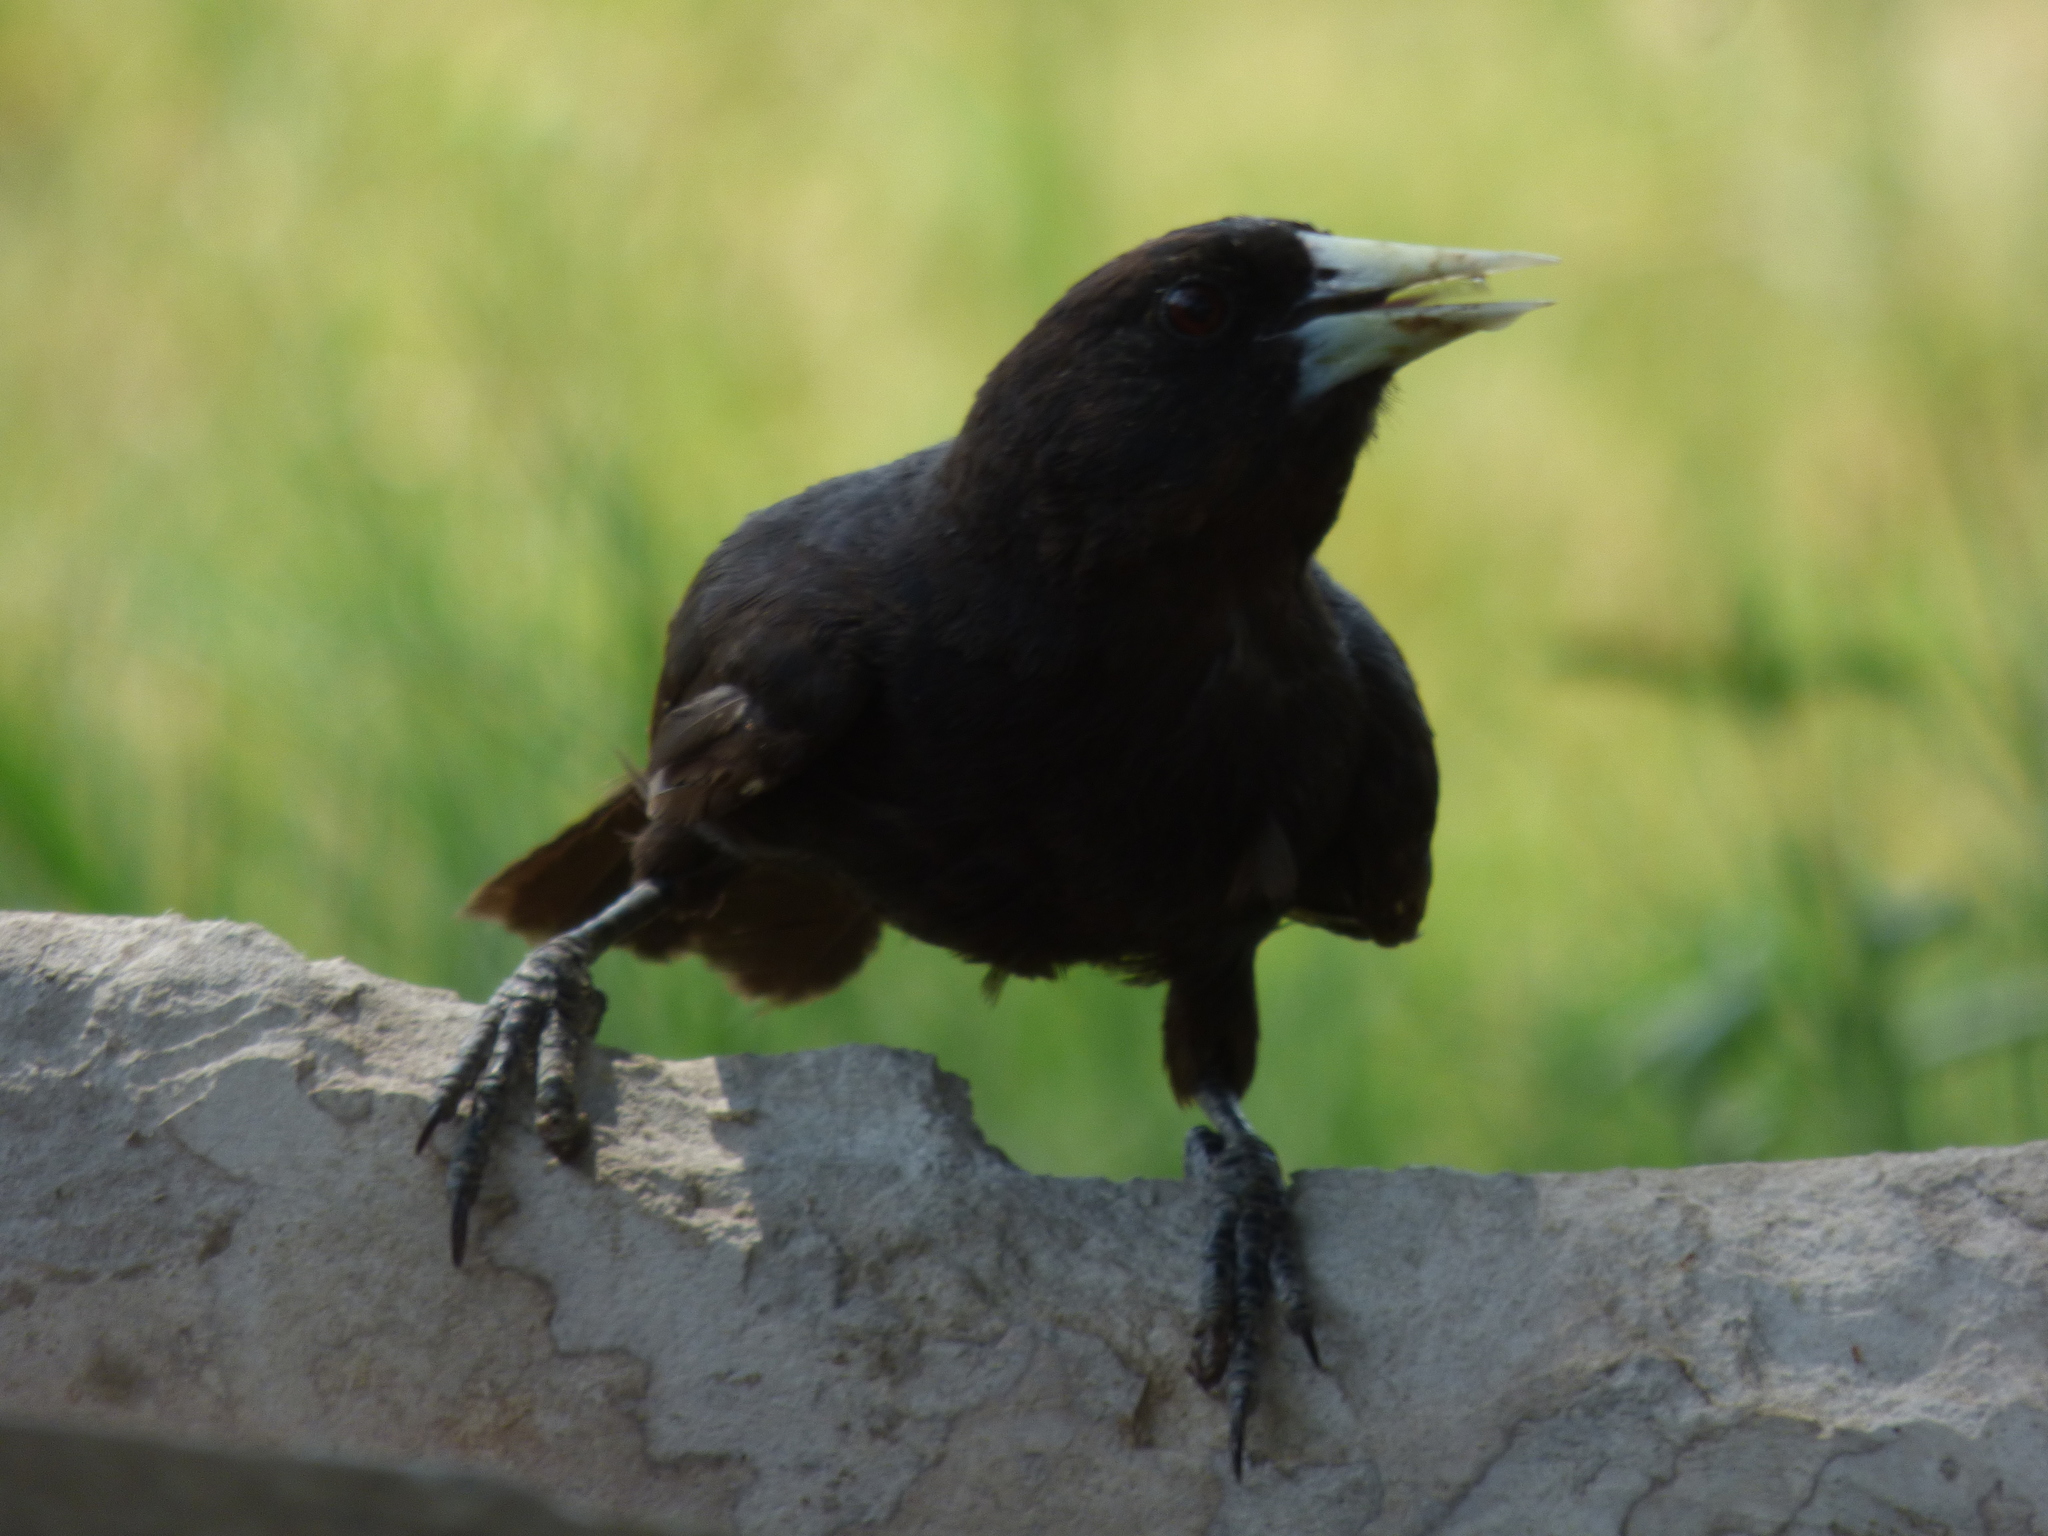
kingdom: Animalia
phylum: Chordata
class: Aves
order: Passeriformes
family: Icteridae
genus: Cacicus
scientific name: Cacicus solitarius
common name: Solitary cacique
